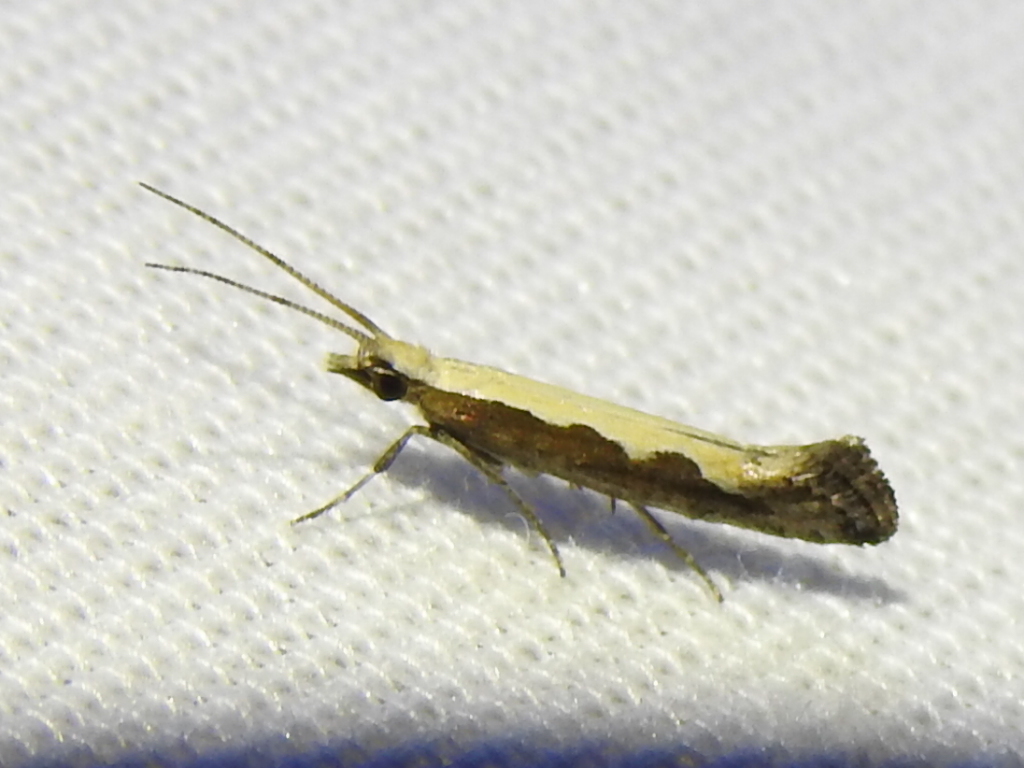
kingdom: Animalia
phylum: Arthropoda
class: Insecta
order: Lepidoptera
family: Plutellidae
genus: Plutella
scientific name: Plutella xylostella
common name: Diamond-back moth
